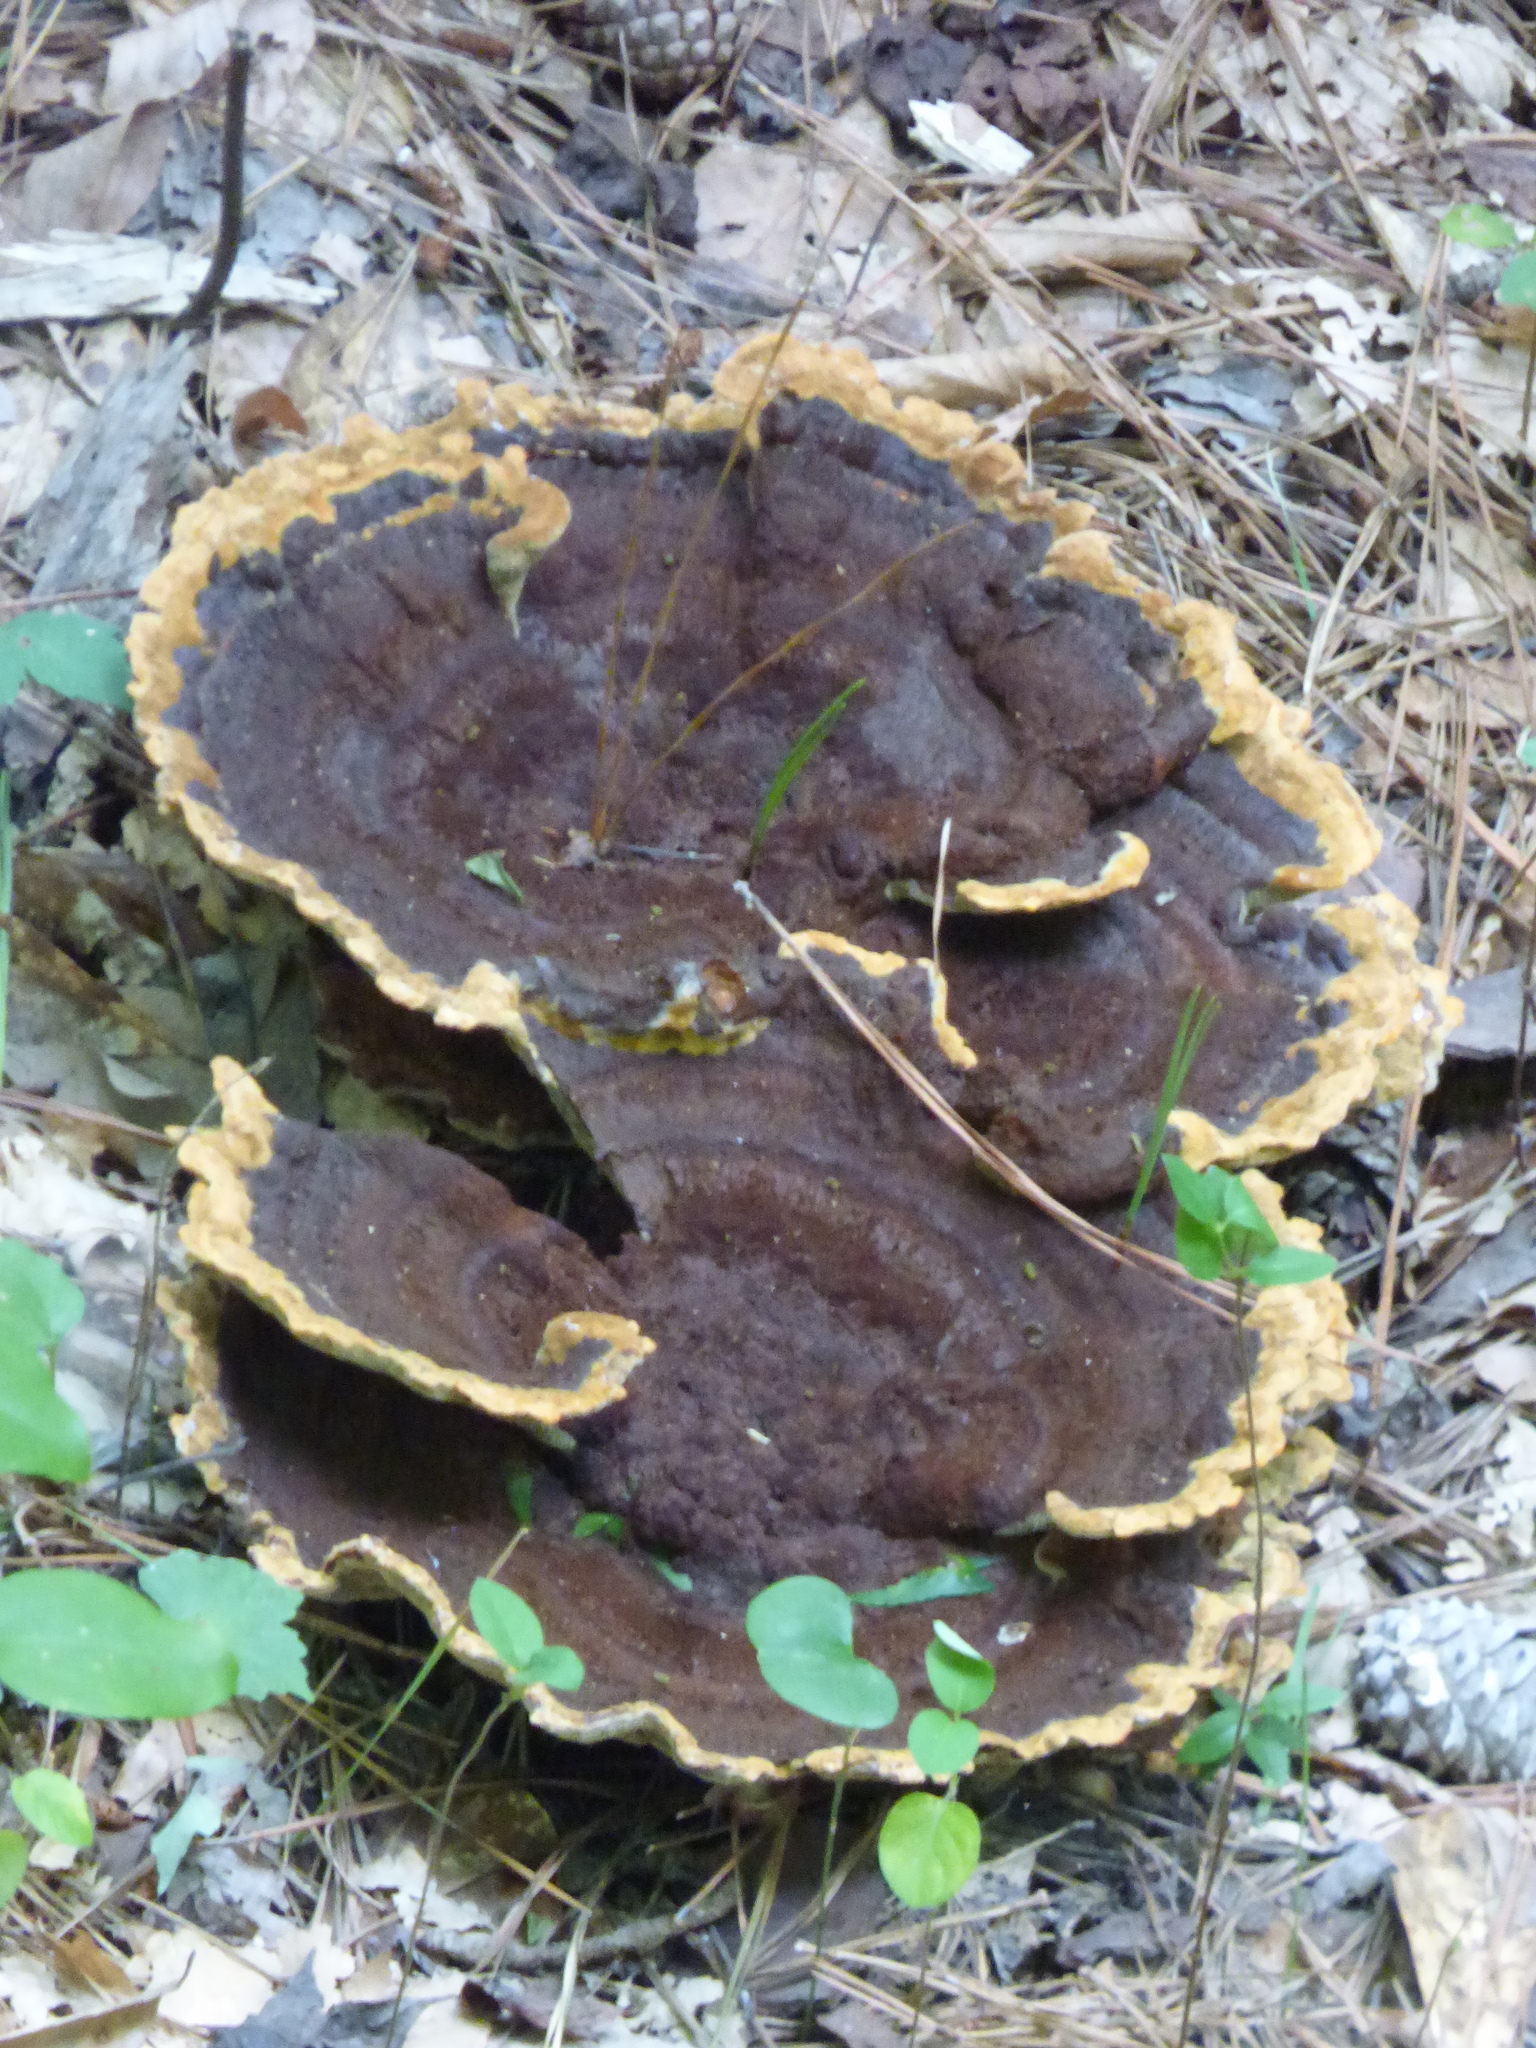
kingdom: Fungi
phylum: Basidiomycota
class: Agaricomycetes
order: Polyporales
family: Laetiporaceae
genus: Phaeolus
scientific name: Phaeolus schweinitzii
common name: Dyer's mazegill
